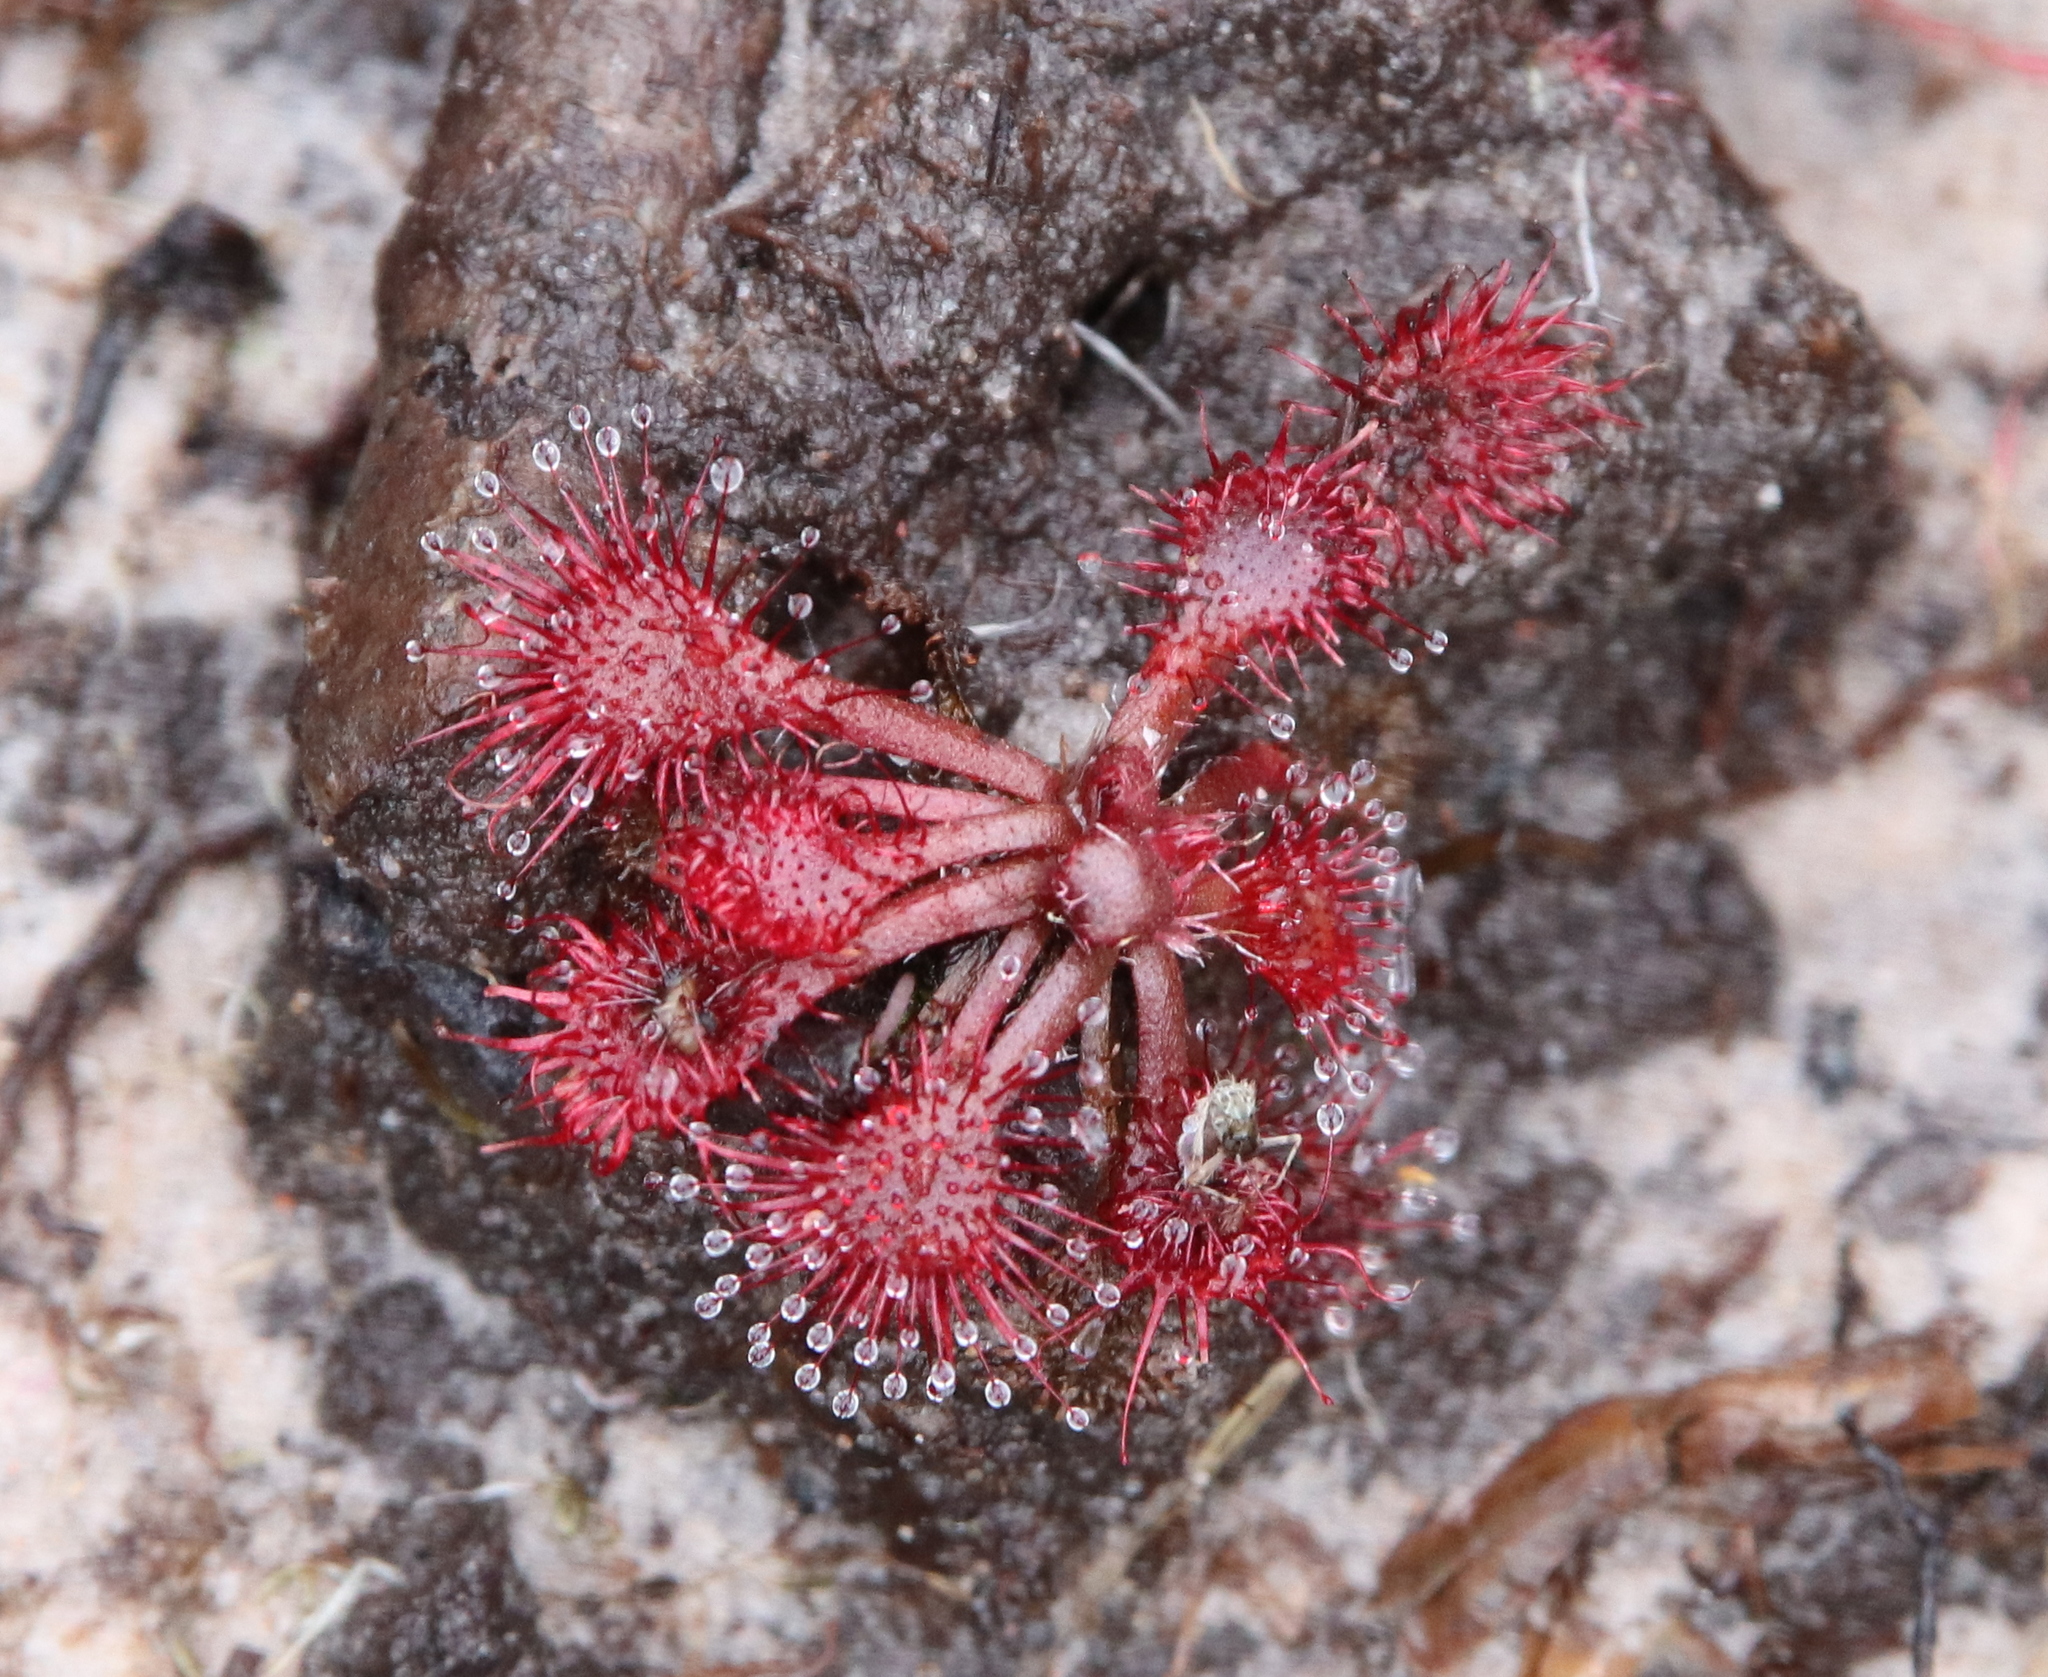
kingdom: Plantae
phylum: Tracheophyta
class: Magnoliopsida
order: Caryophyllales
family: Droseraceae
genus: Drosera
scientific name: Drosera capillaris
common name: Pink sundew
